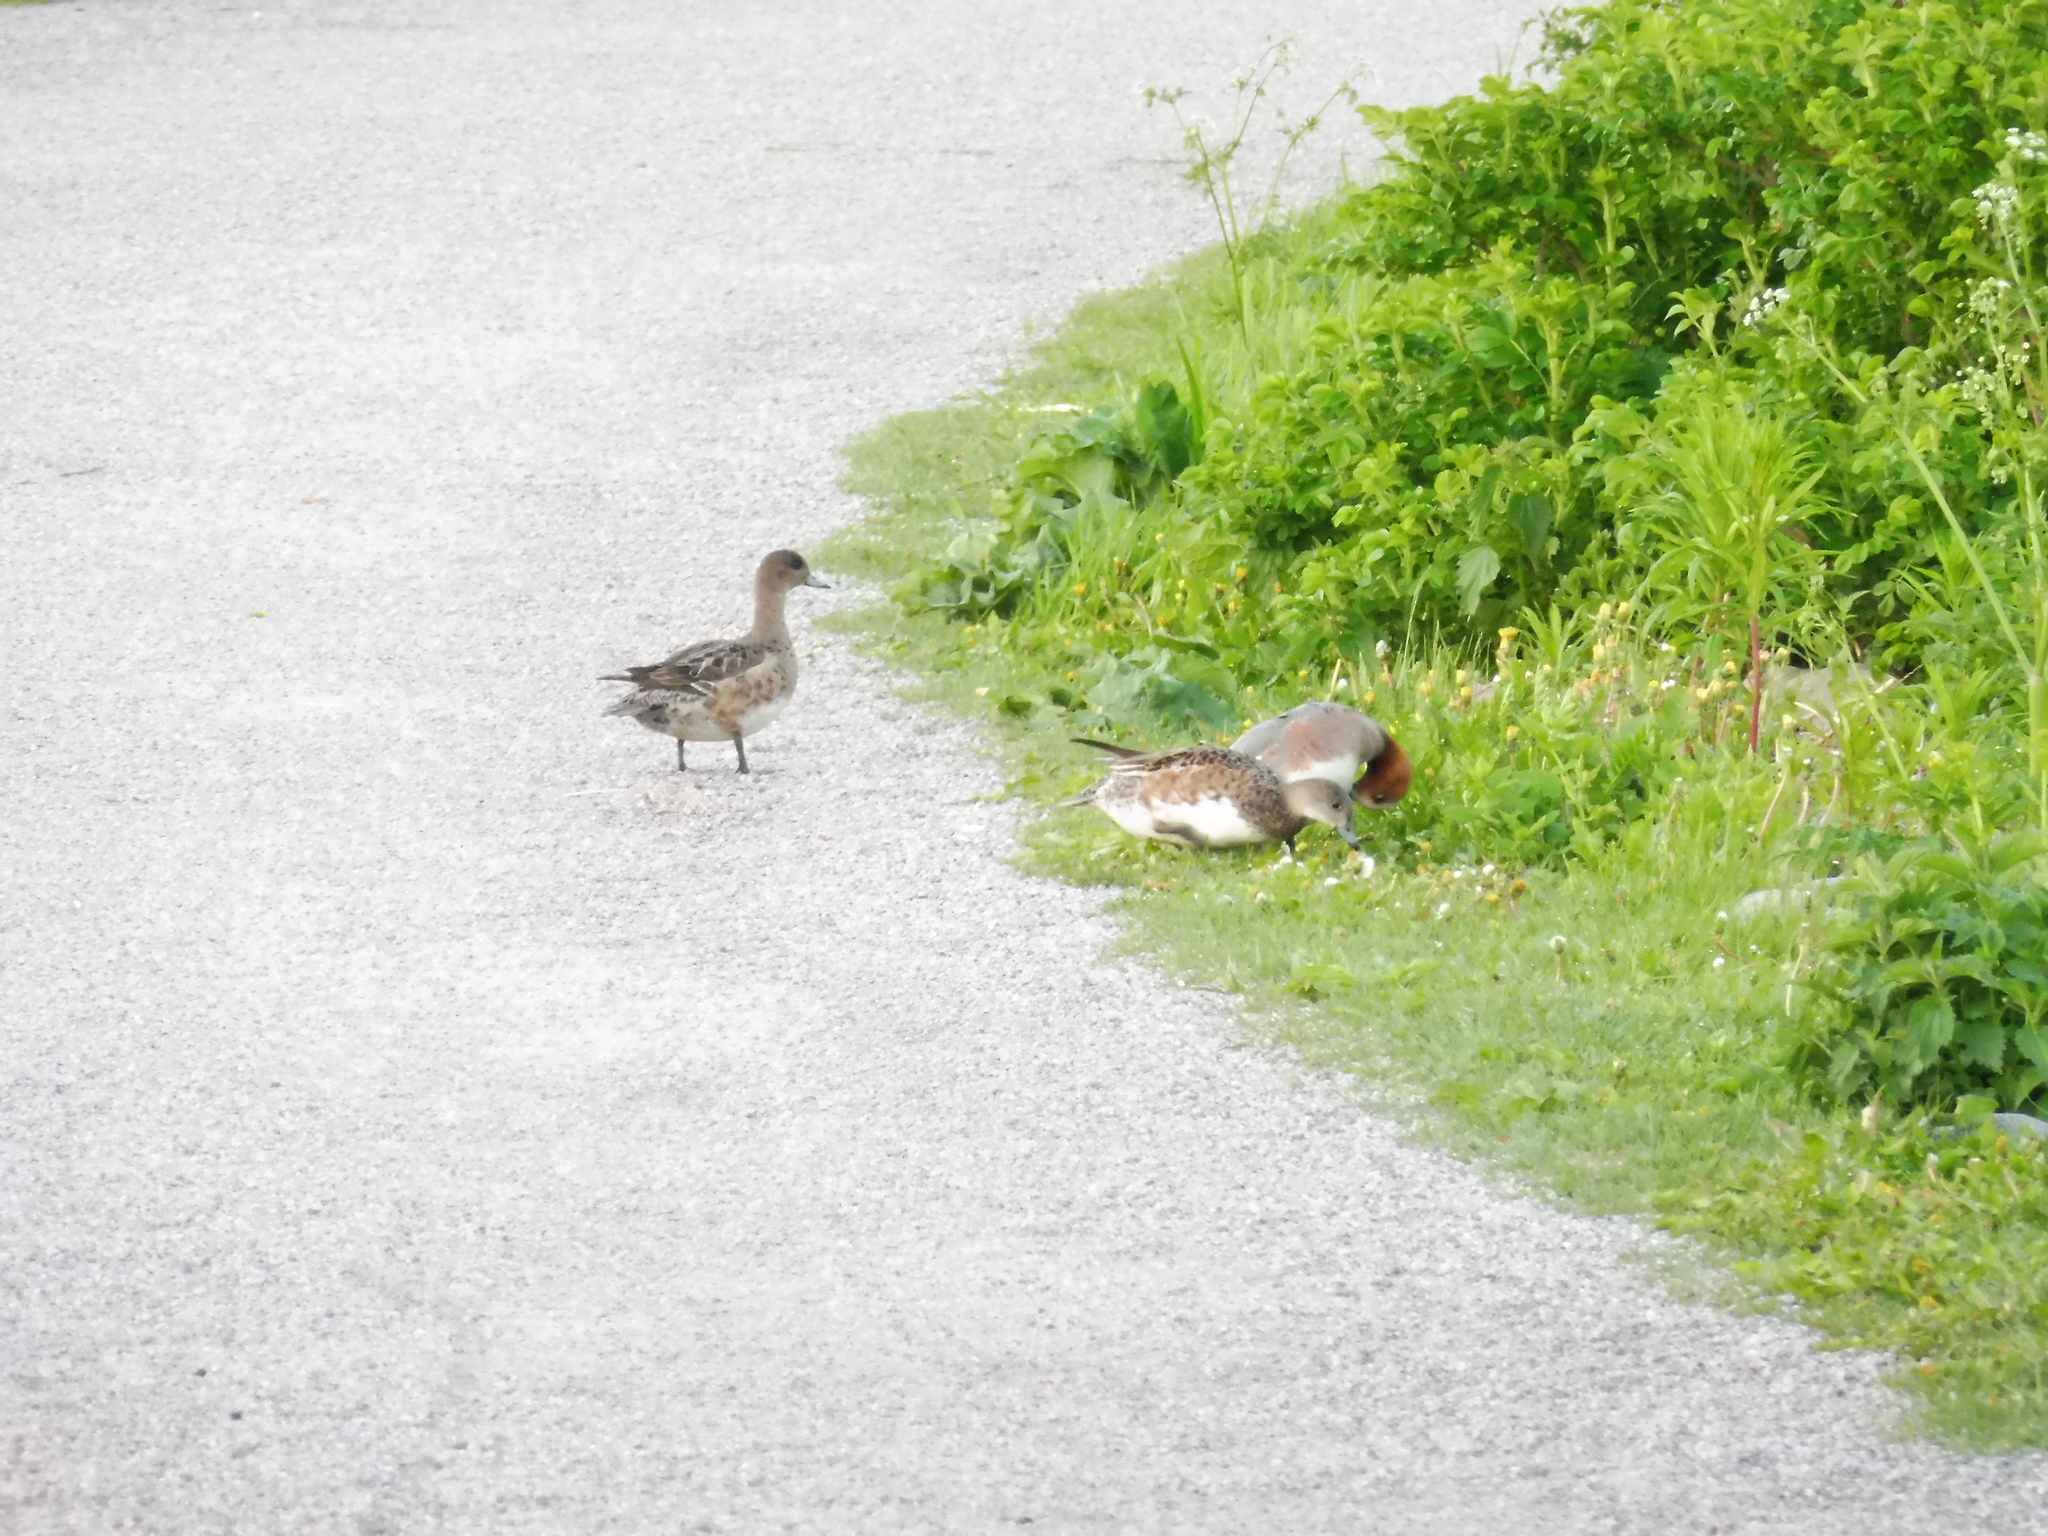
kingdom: Animalia
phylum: Chordata
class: Aves
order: Anseriformes
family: Anatidae
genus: Mareca
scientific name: Mareca penelope
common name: Eurasian wigeon
